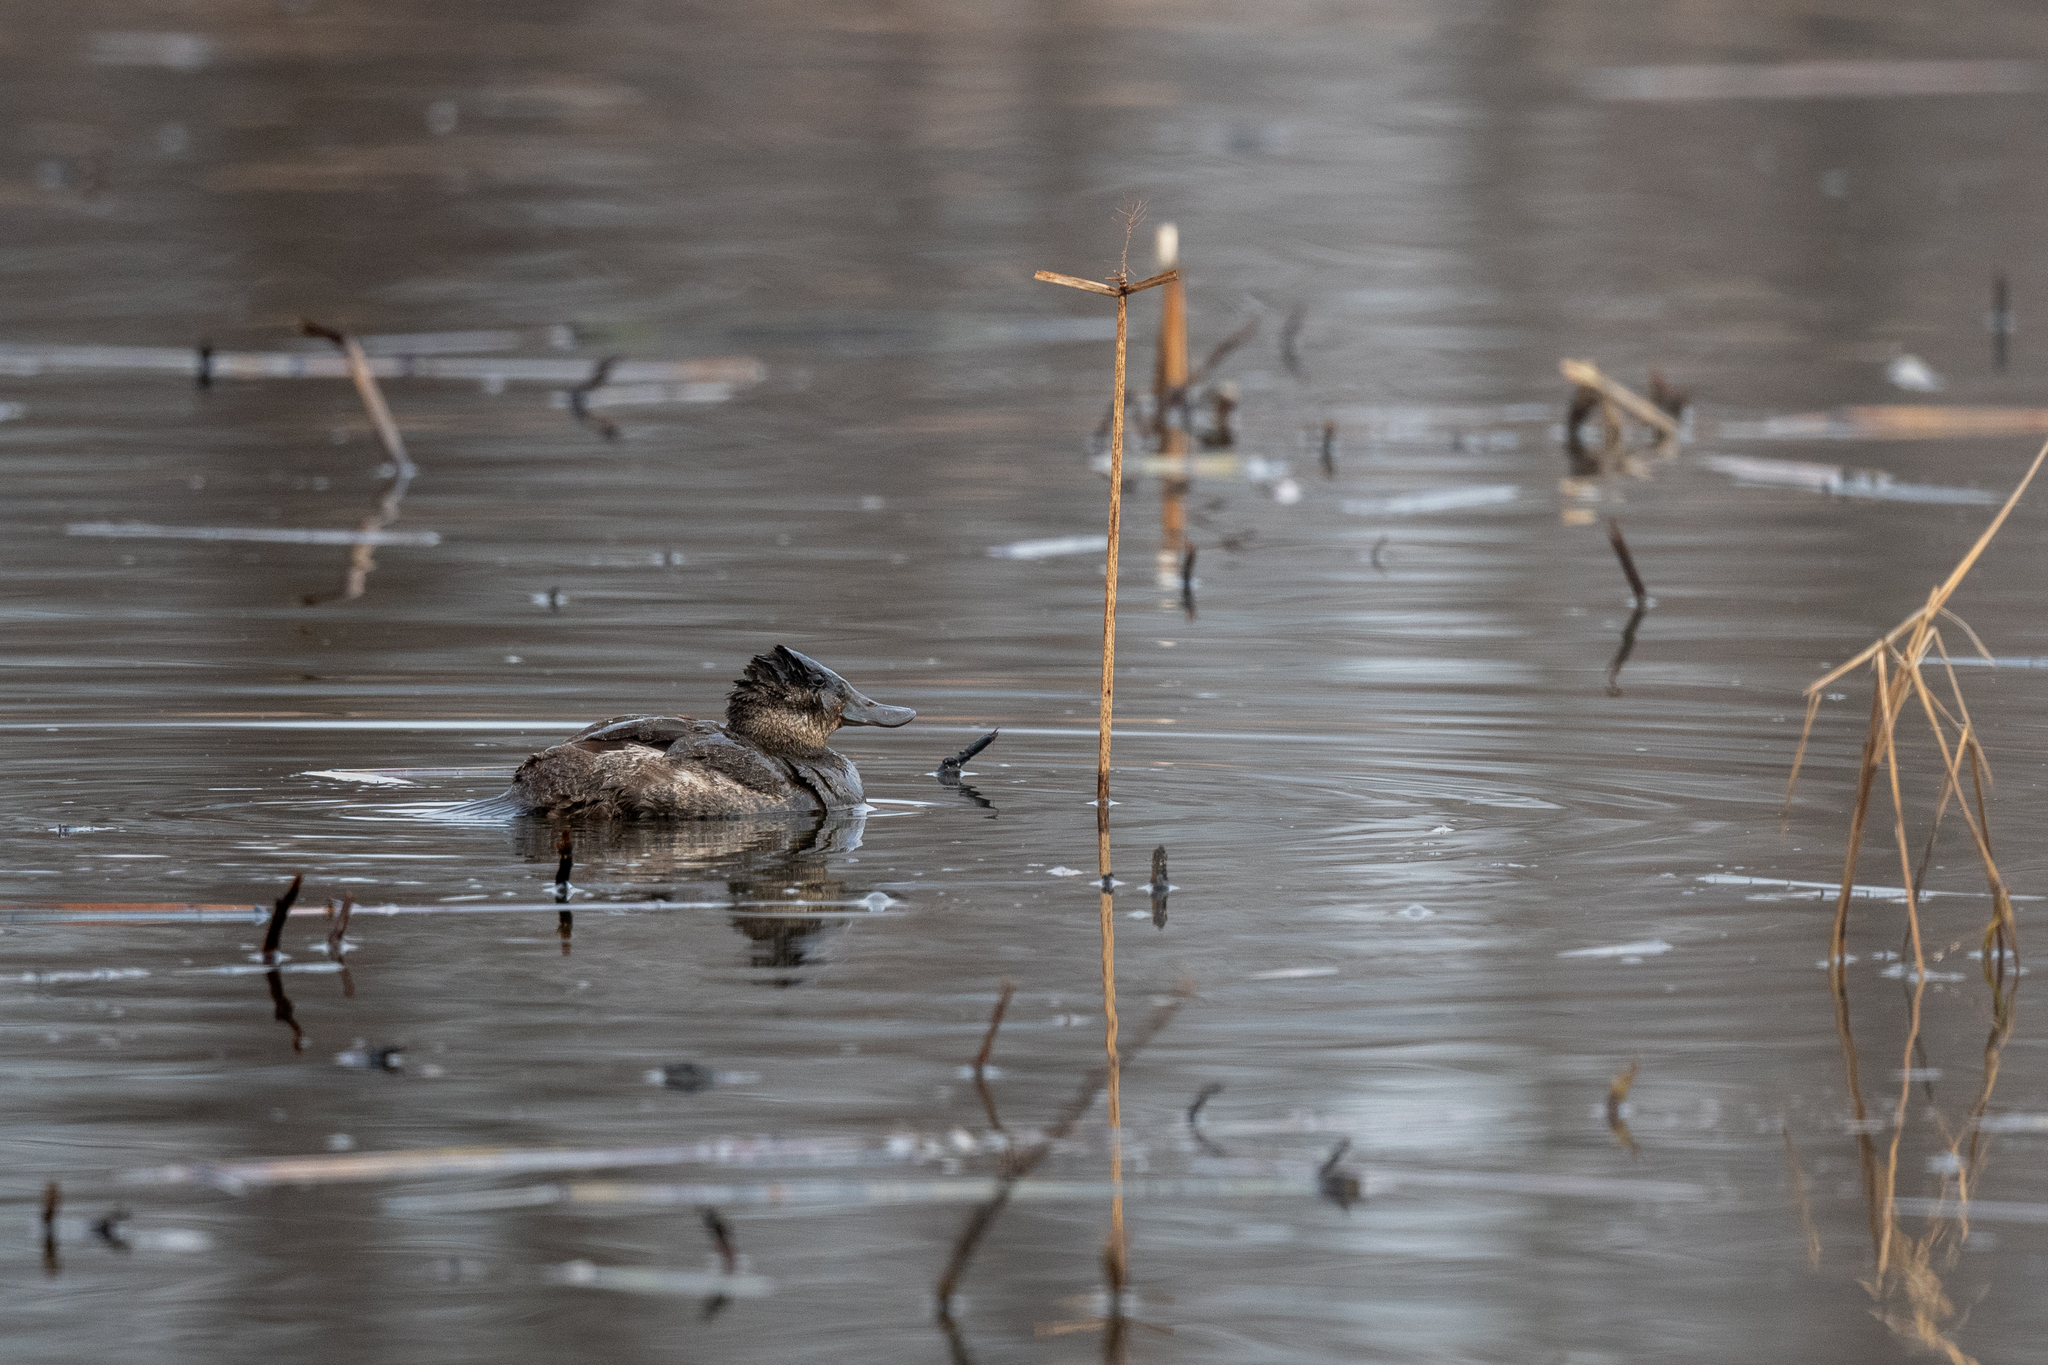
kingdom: Animalia
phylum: Chordata
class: Aves
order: Anseriformes
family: Anatidae
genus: Oxyura
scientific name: Oxyura jamaicensis
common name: Ruddy duck
